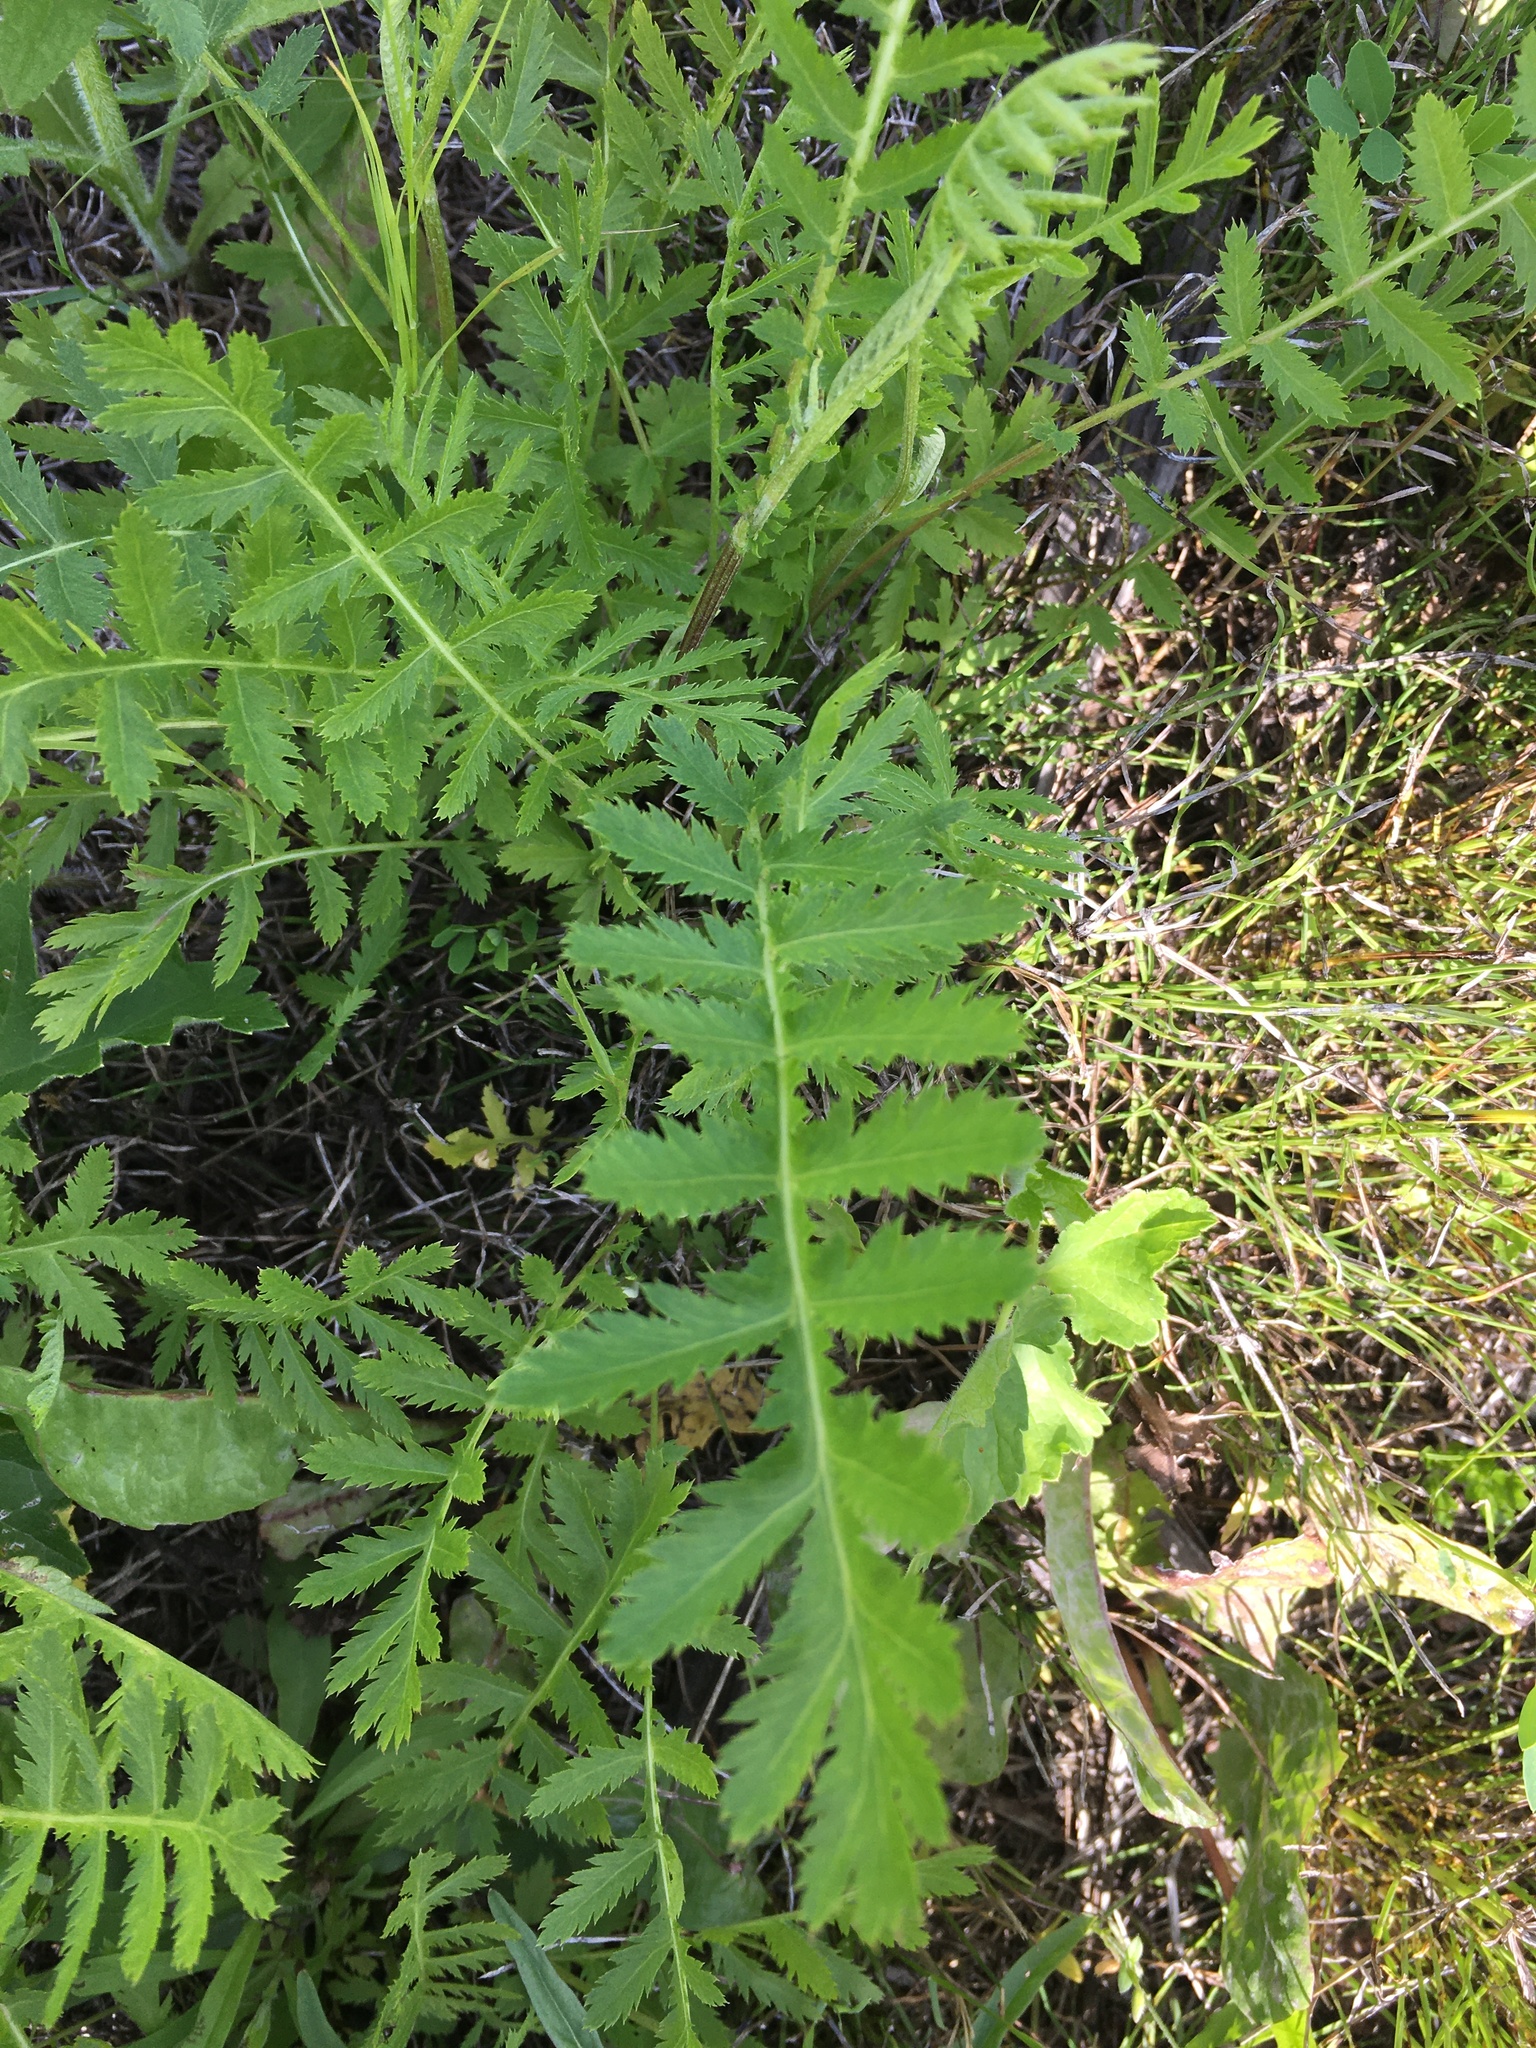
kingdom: Plantae
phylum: Tracheophyta
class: Magnoliopsida
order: Asterales
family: Asteraceae
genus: Tanacetum
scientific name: Tanacetum vulgare
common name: Common tansy
